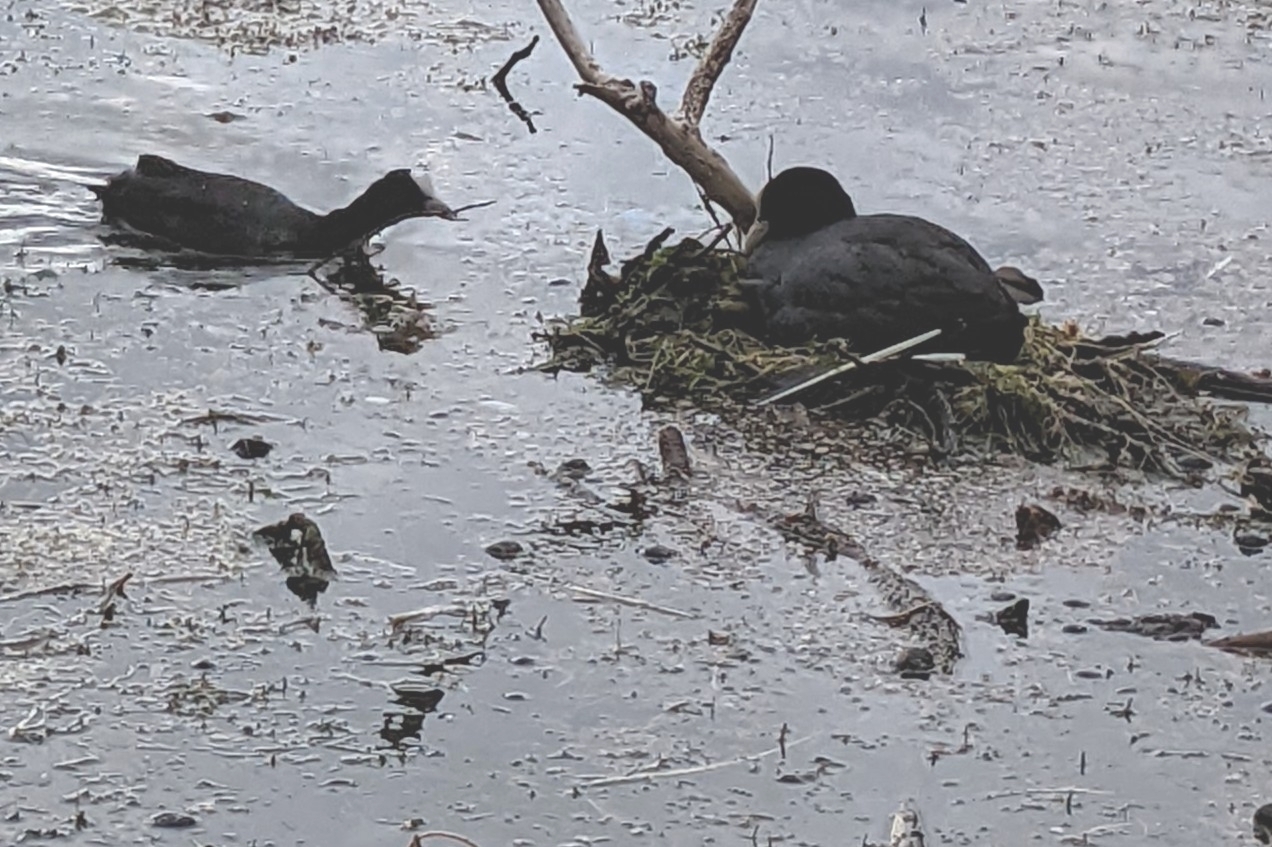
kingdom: Animalia
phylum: Chordata
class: Aves
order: Gruiformes
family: Rallidae
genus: Fulica
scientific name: Fulica atra
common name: Eurasian coot
